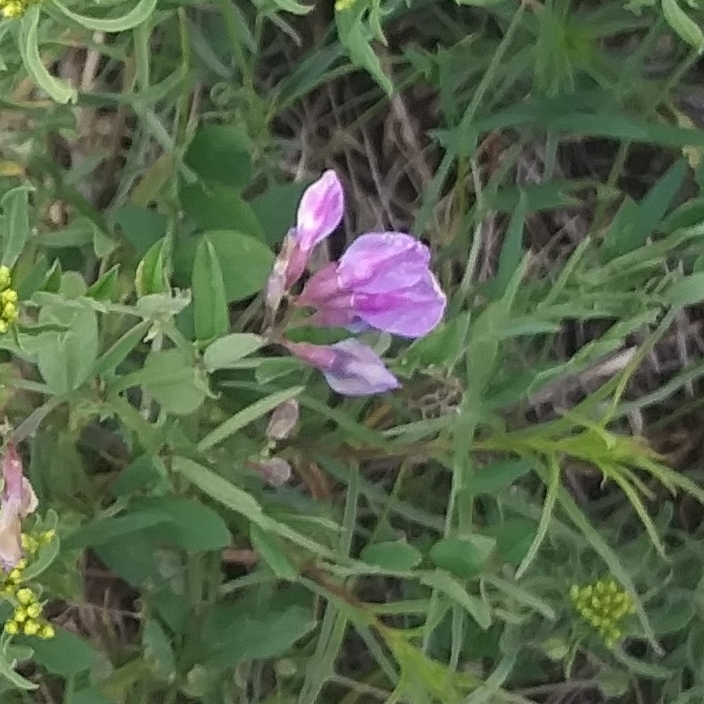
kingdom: Plantae
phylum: Tracheophyta
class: Magnoliopsida
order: Fabales
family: Fabaceae
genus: Vicia
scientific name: Vicia americana
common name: American vetch
